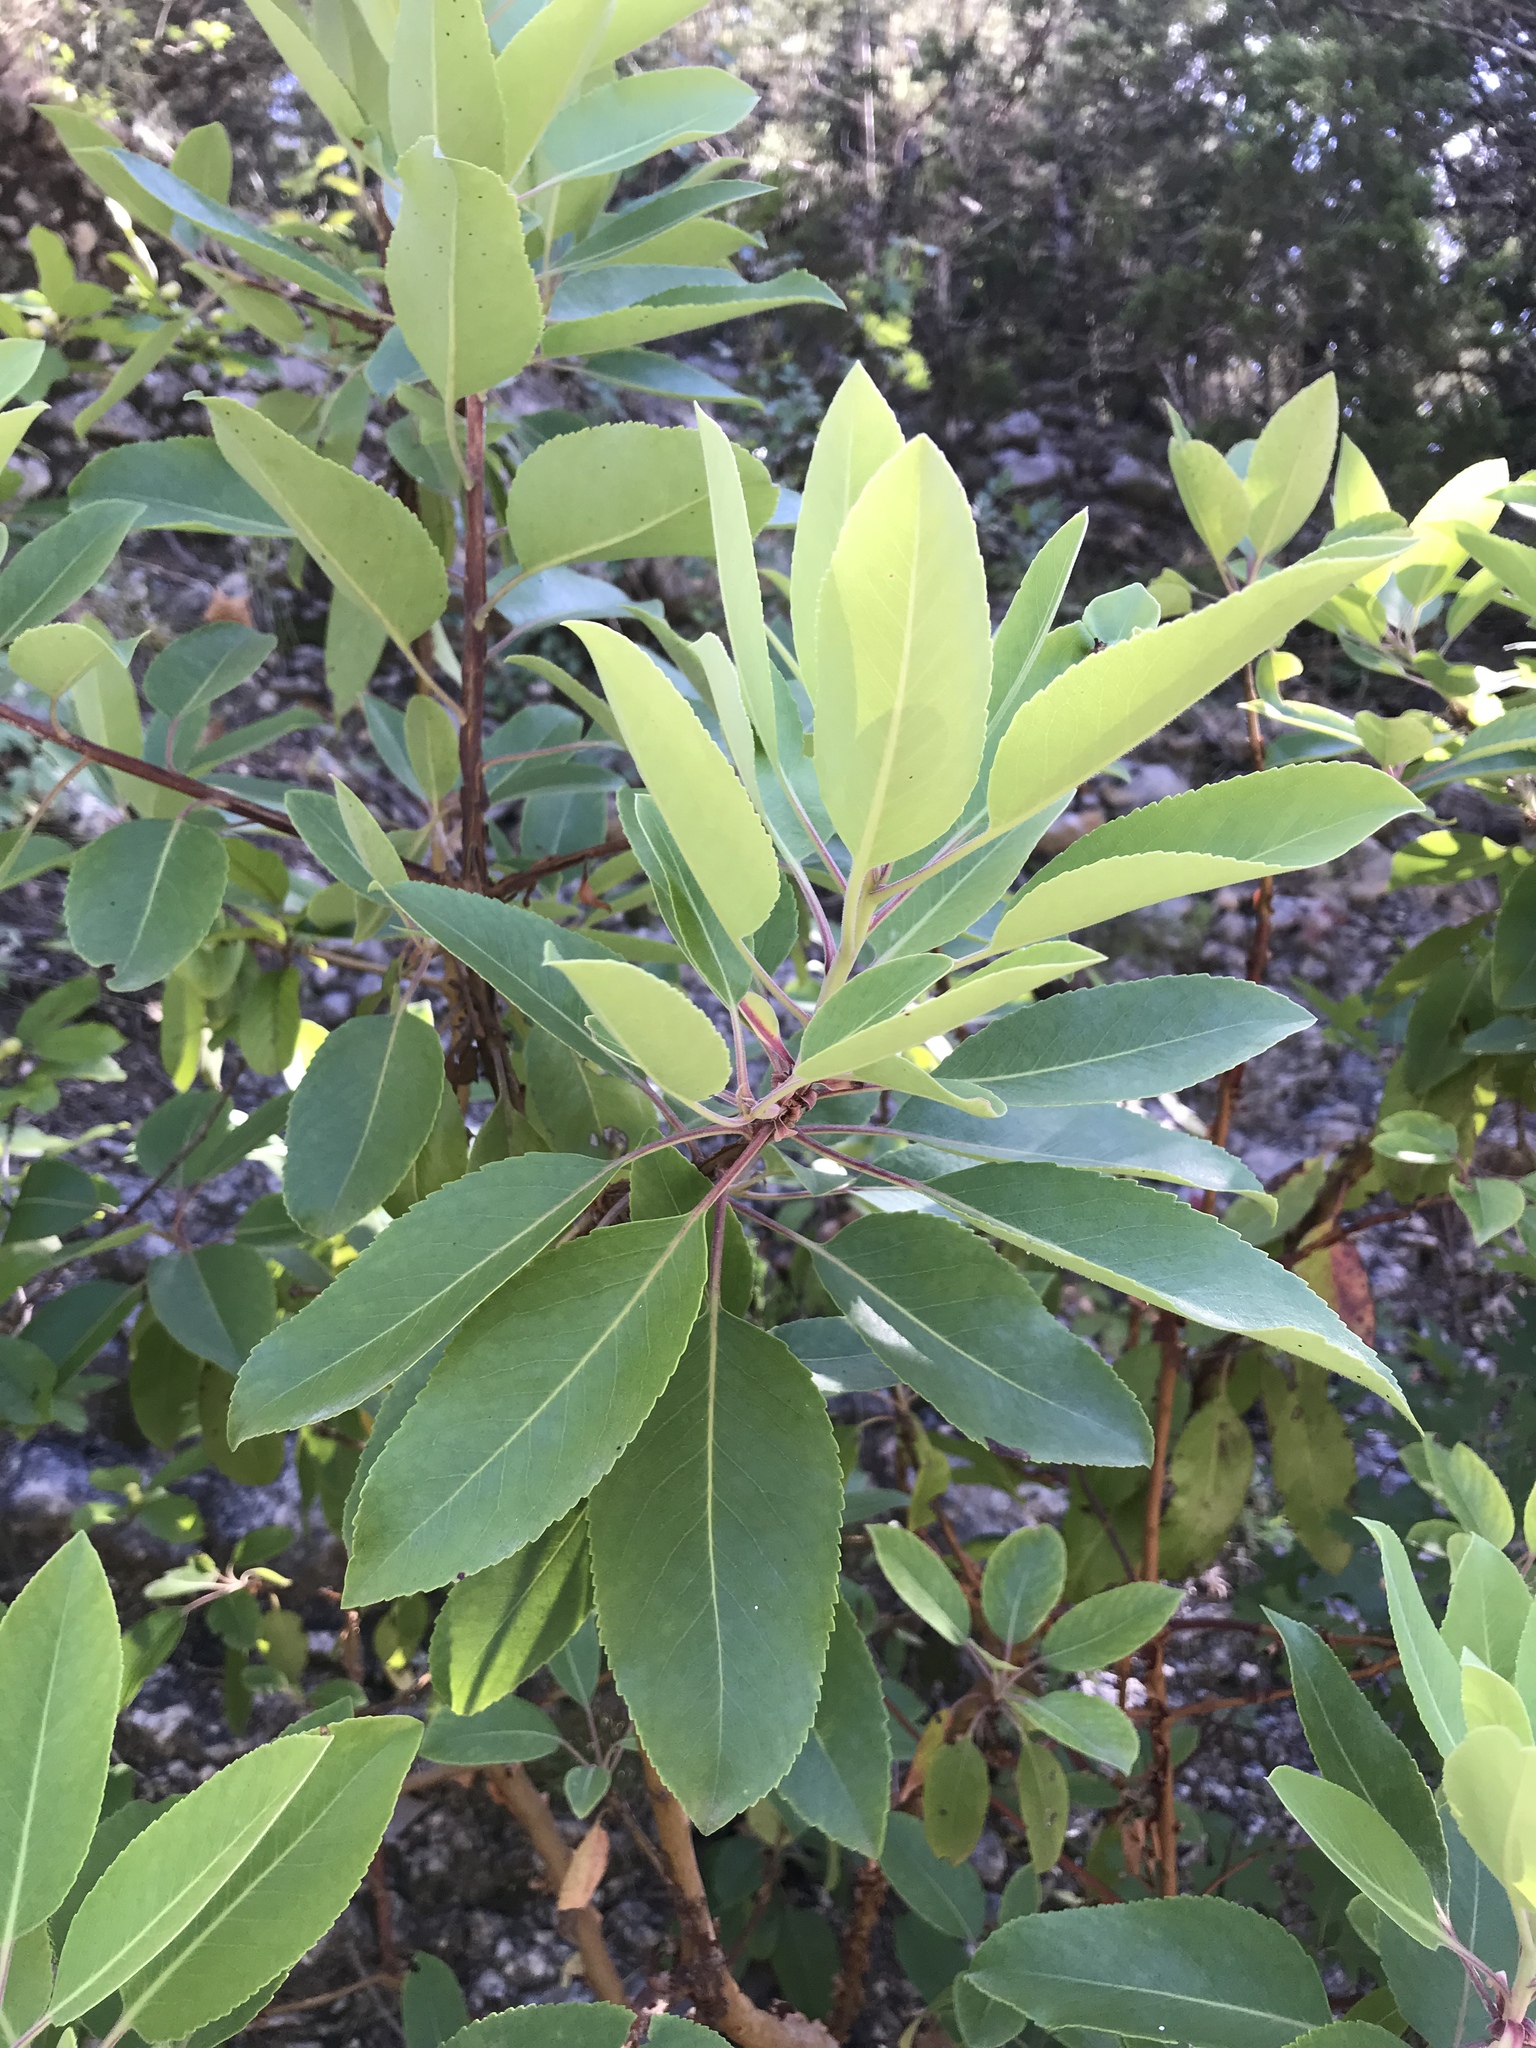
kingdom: Plantae
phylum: Tracheophyta
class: Magnoliopsida
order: Ericales
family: Ericaceae
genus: Arbutus
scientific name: Arbutus xalapensis
